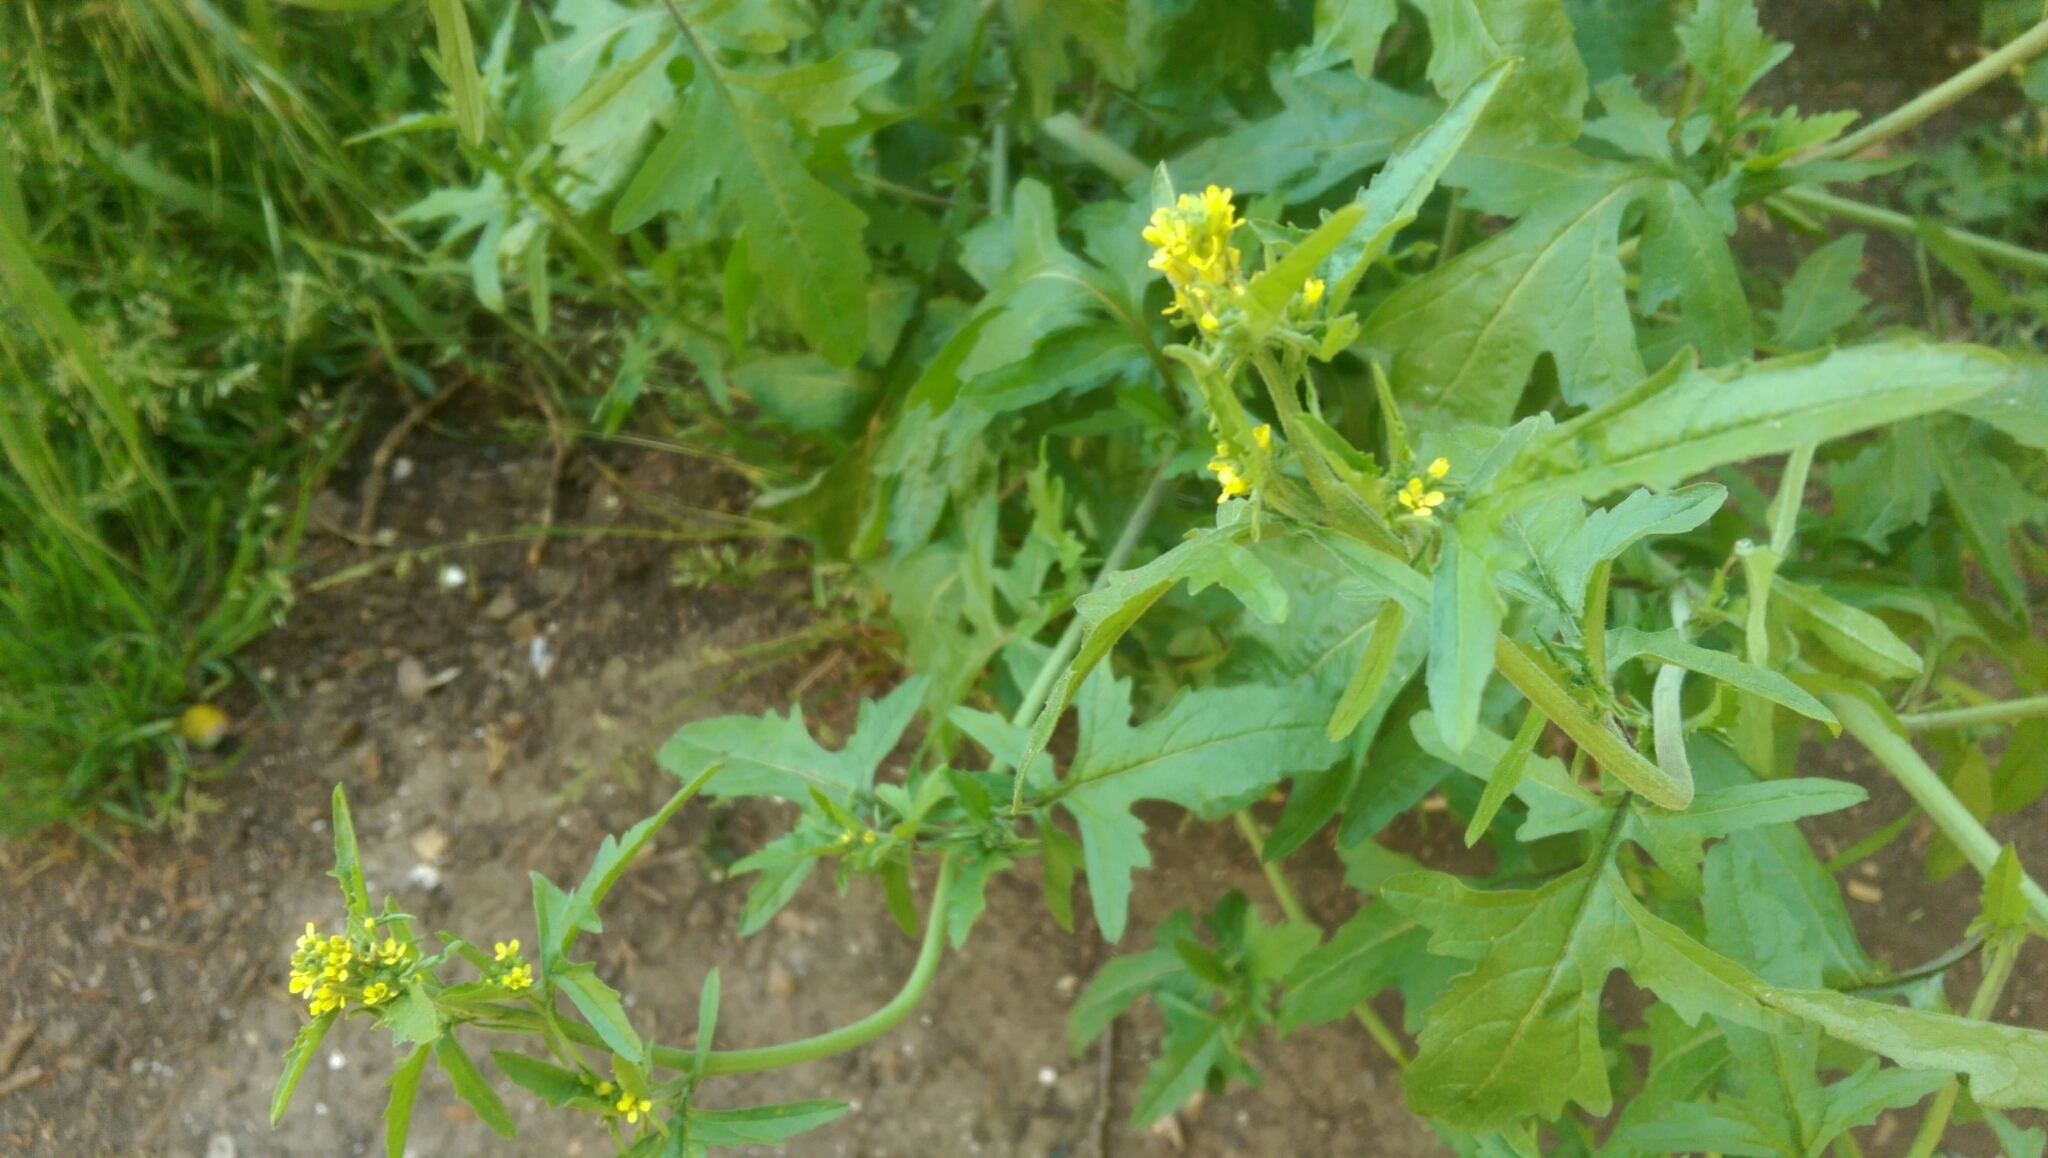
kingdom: Plantae
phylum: Tracheophyta
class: Magnoliopsida
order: Brassicales
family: Brassicaceae
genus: Sisymbrium
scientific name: Sisymbrium officinale
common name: Hedge mustard
